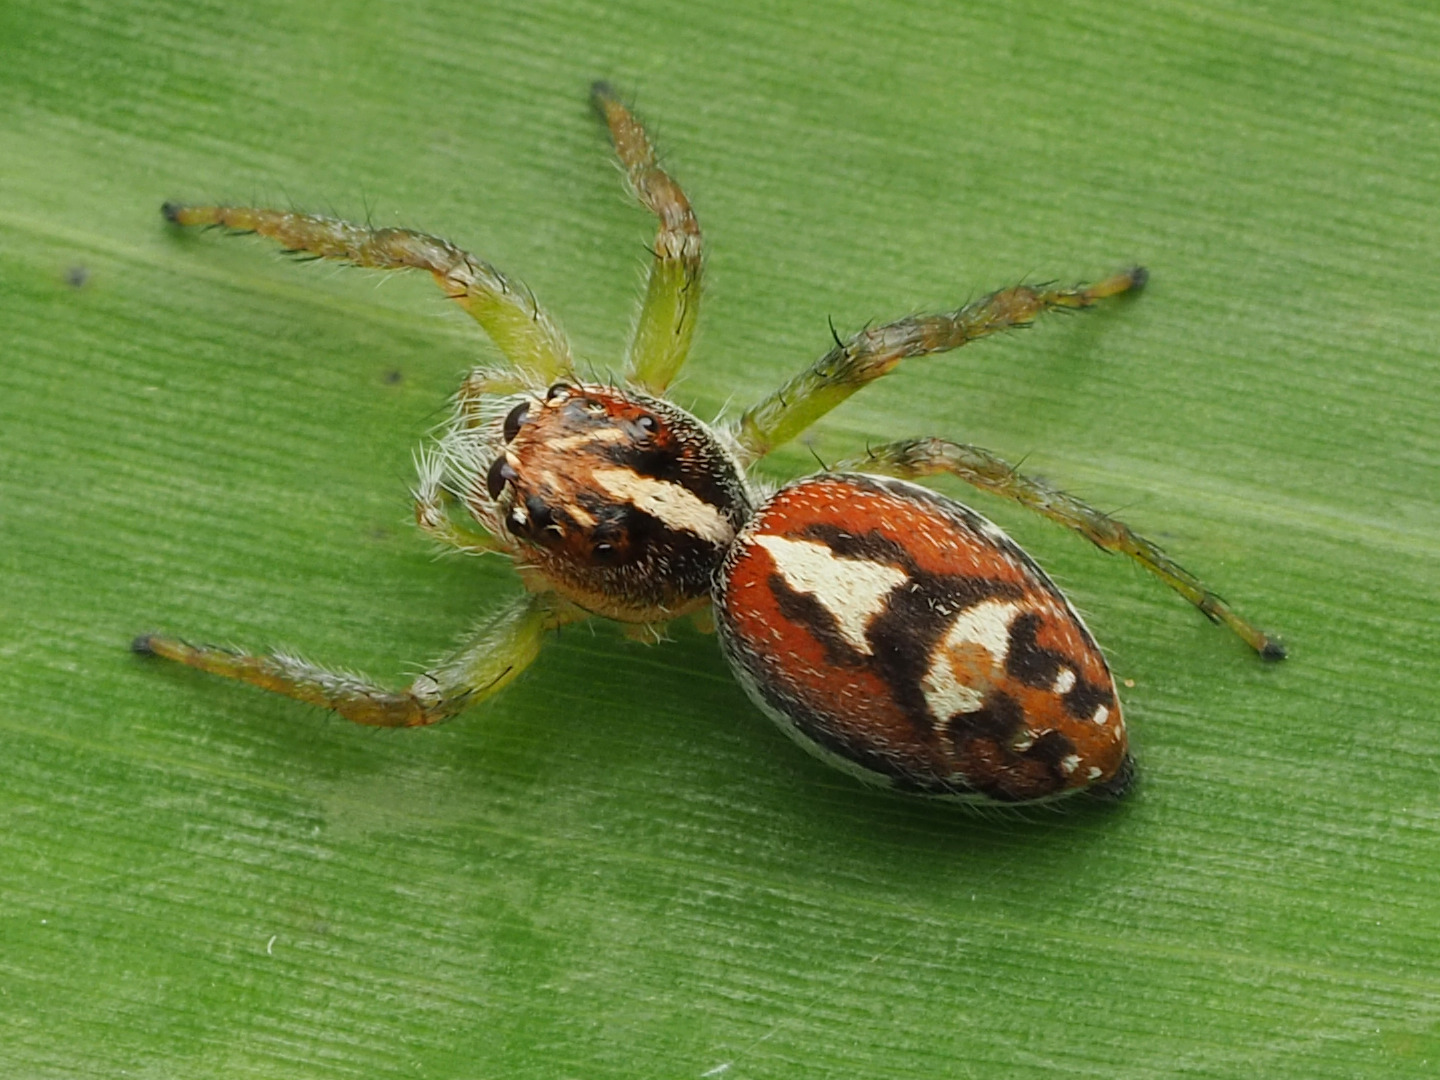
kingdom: Animalia
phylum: Arthropoda
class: Arachnida
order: Araneae
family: Salticidae
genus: Frigga
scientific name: Frigga pratensis
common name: Jumping spiders
